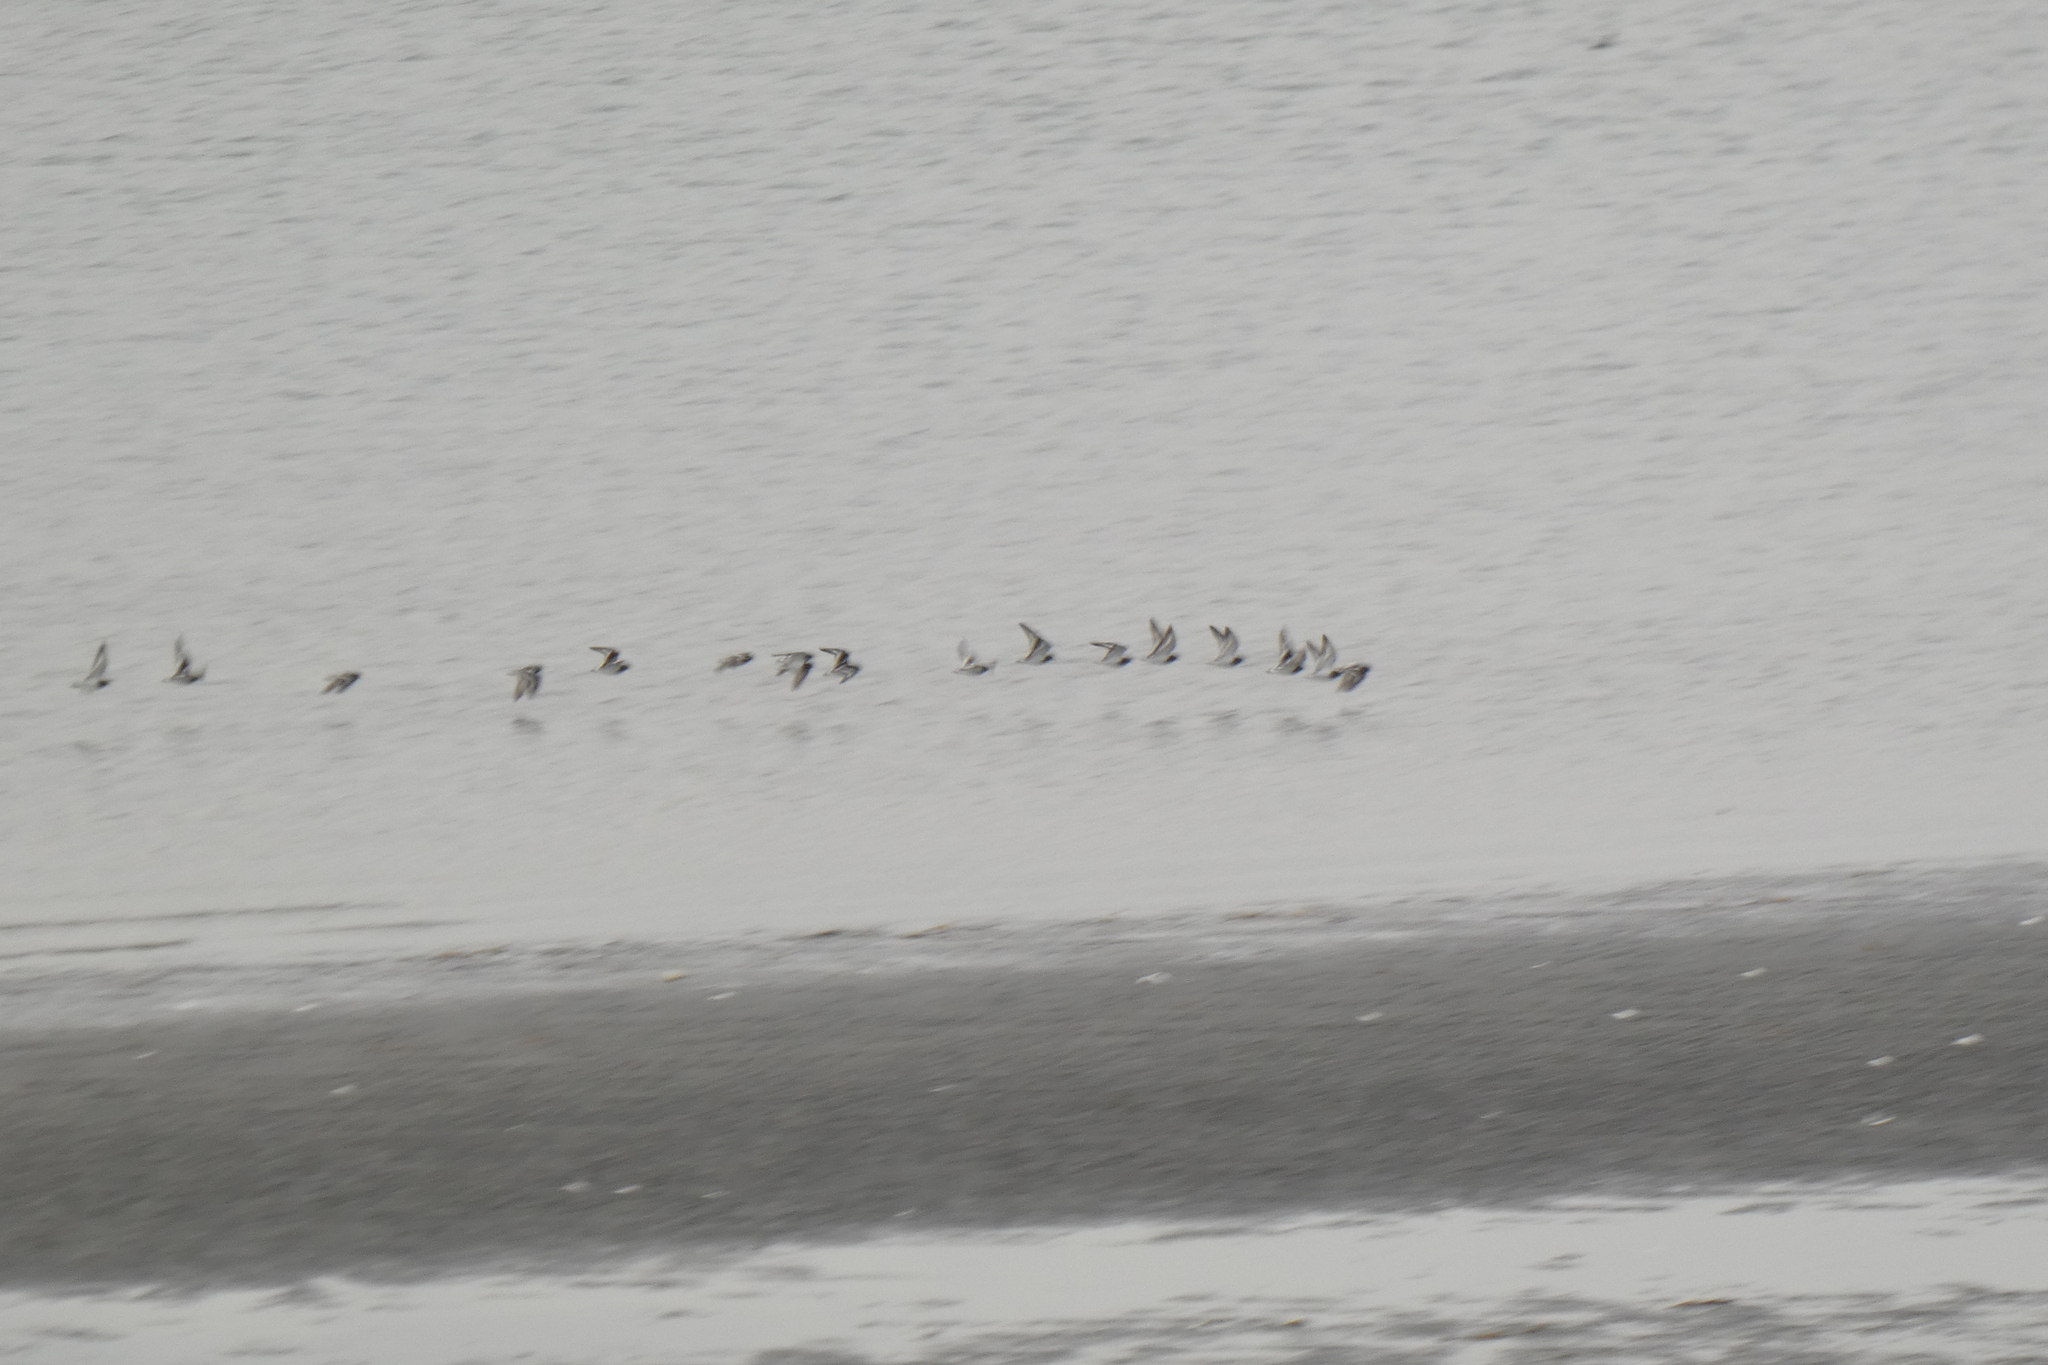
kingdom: Animalia
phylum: Chordata
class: Aves
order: Charadriiformes
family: Scolopacidae
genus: Arenaria
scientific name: Arenaria melanocephala
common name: Black turnstone
